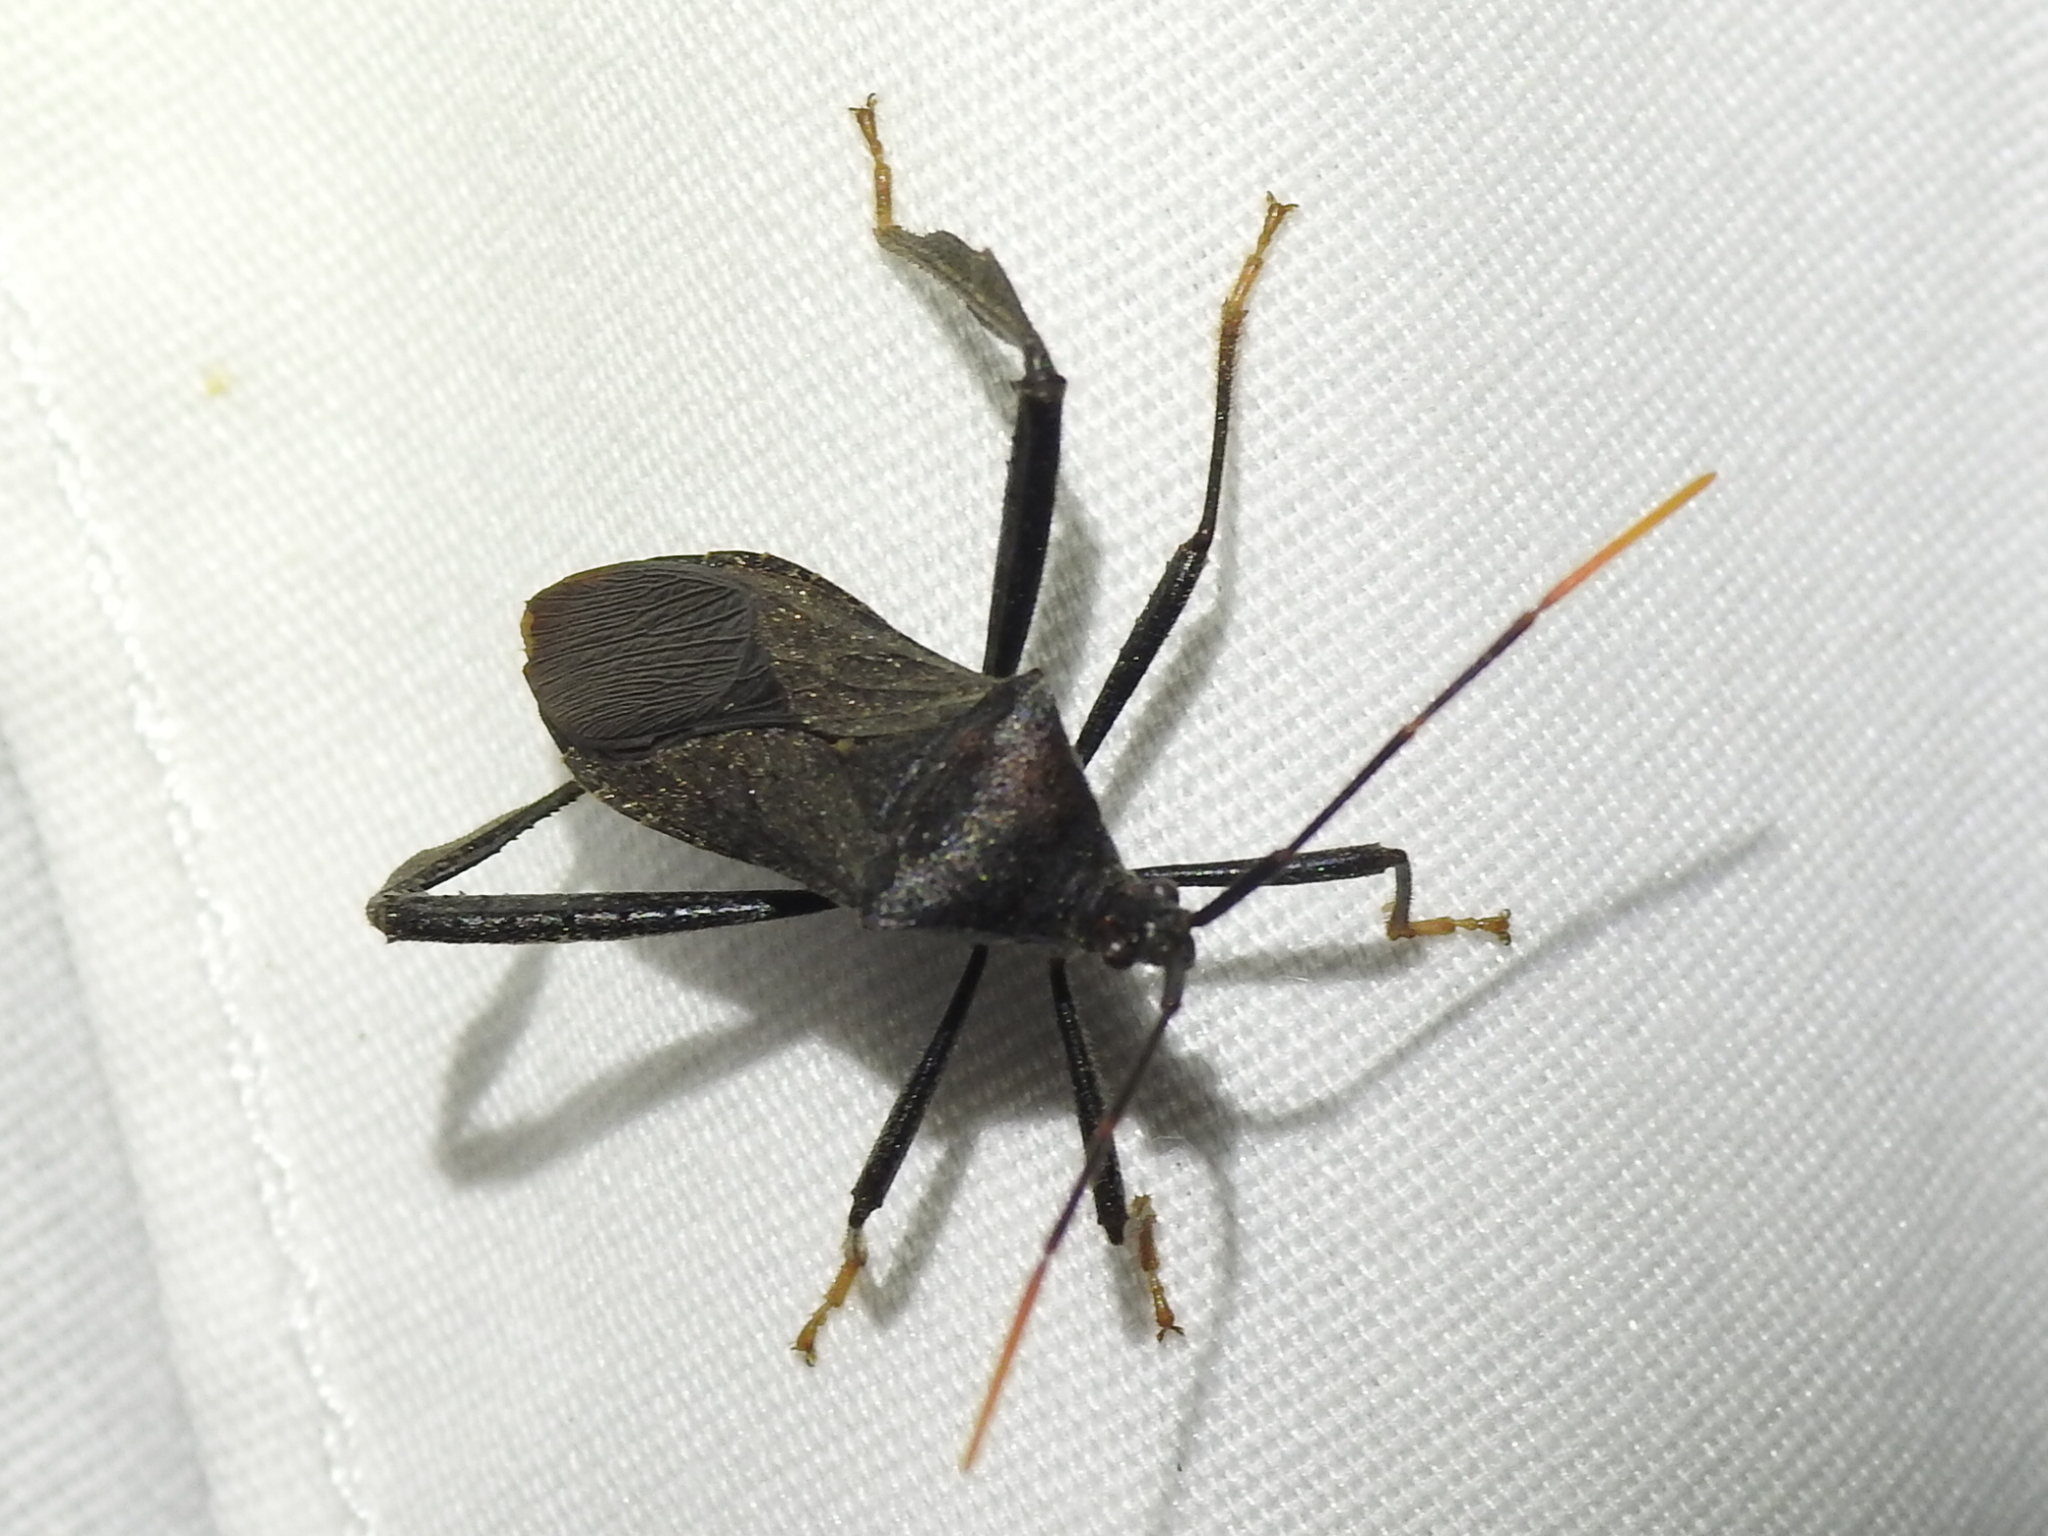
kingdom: Animalia
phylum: Arthropoda
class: Insecta
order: Hemiptera
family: Coreidae
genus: Acanthocephala
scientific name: Acanthocephala terminalis
